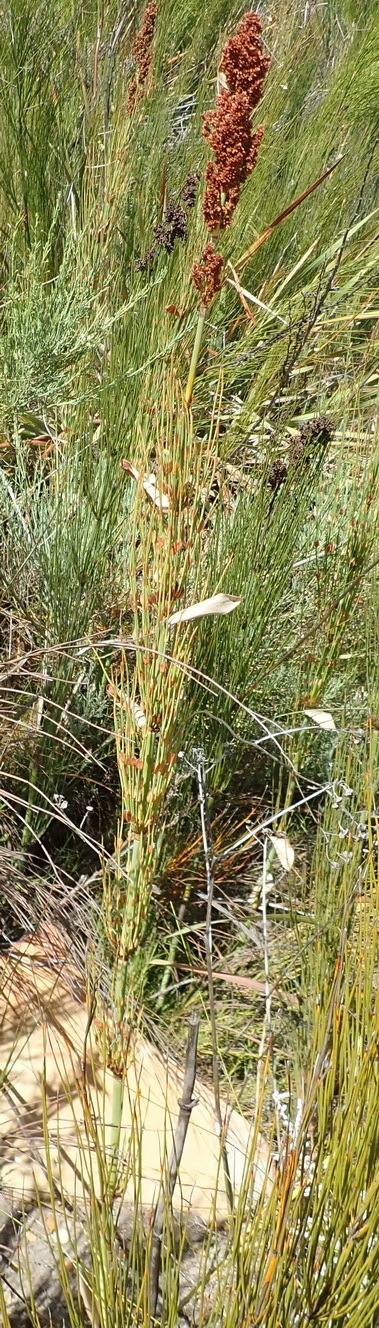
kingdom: Plantae
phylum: Tracheophyta
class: Liliopsida
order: Poales
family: Restionaceae
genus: Elegia
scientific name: Elegia capensis
